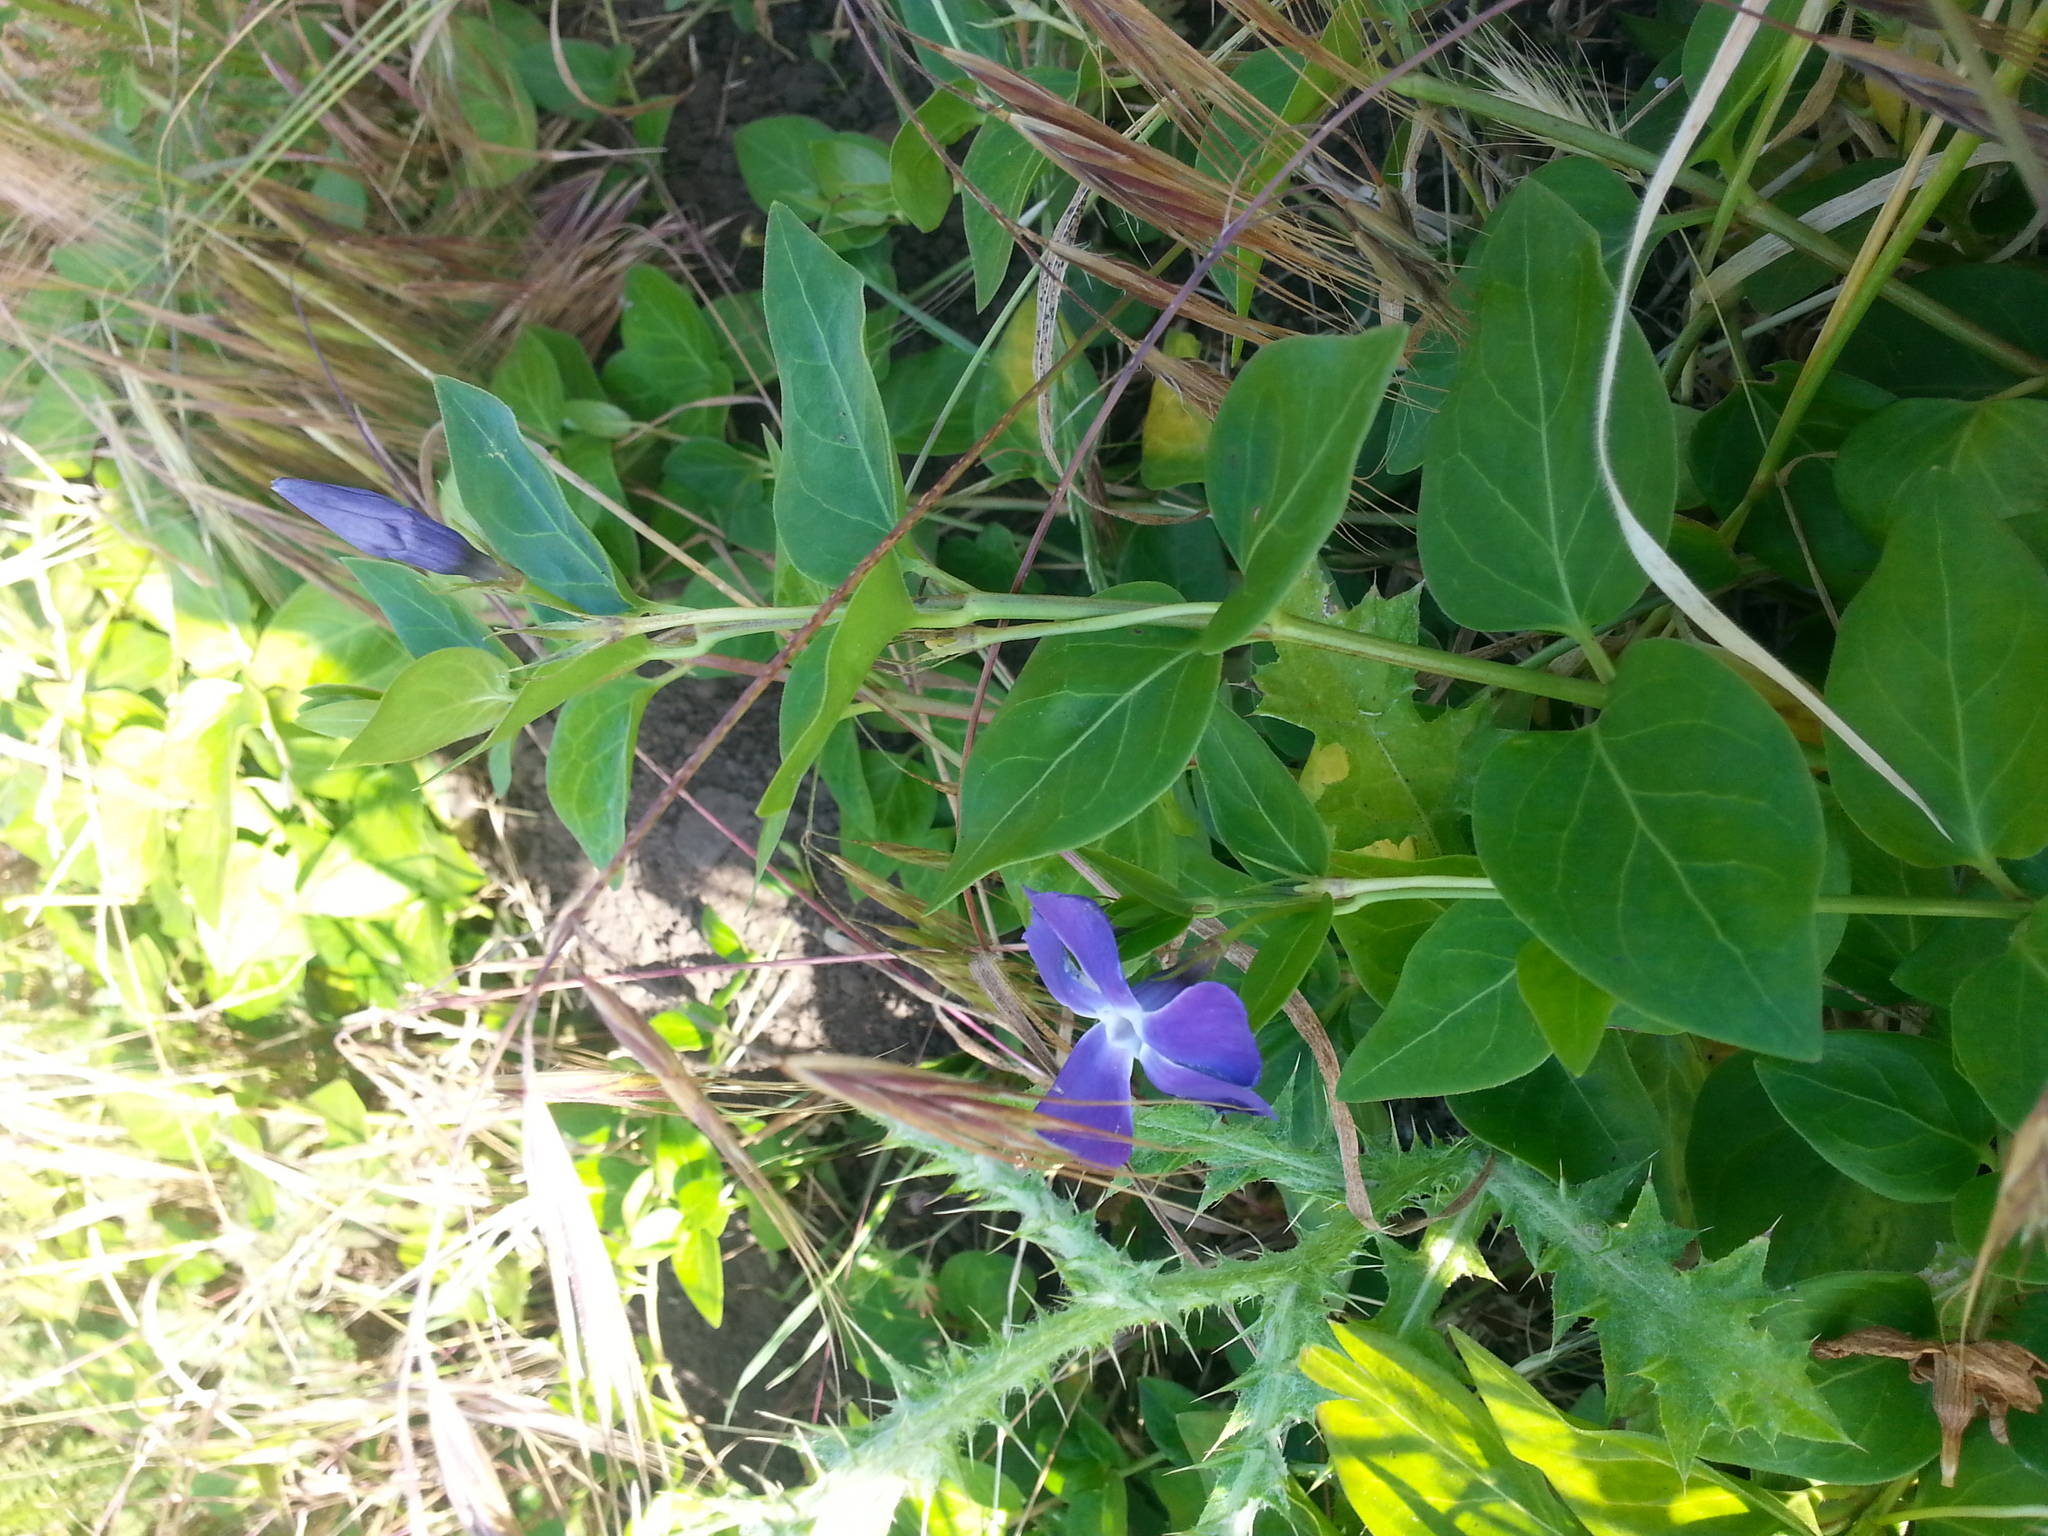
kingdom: Plantae
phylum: Tracheophyta
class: Magnoliopsida
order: Gentianales
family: Apocynaceae
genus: Vinca
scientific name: Vinca major
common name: Greater periwinkle
